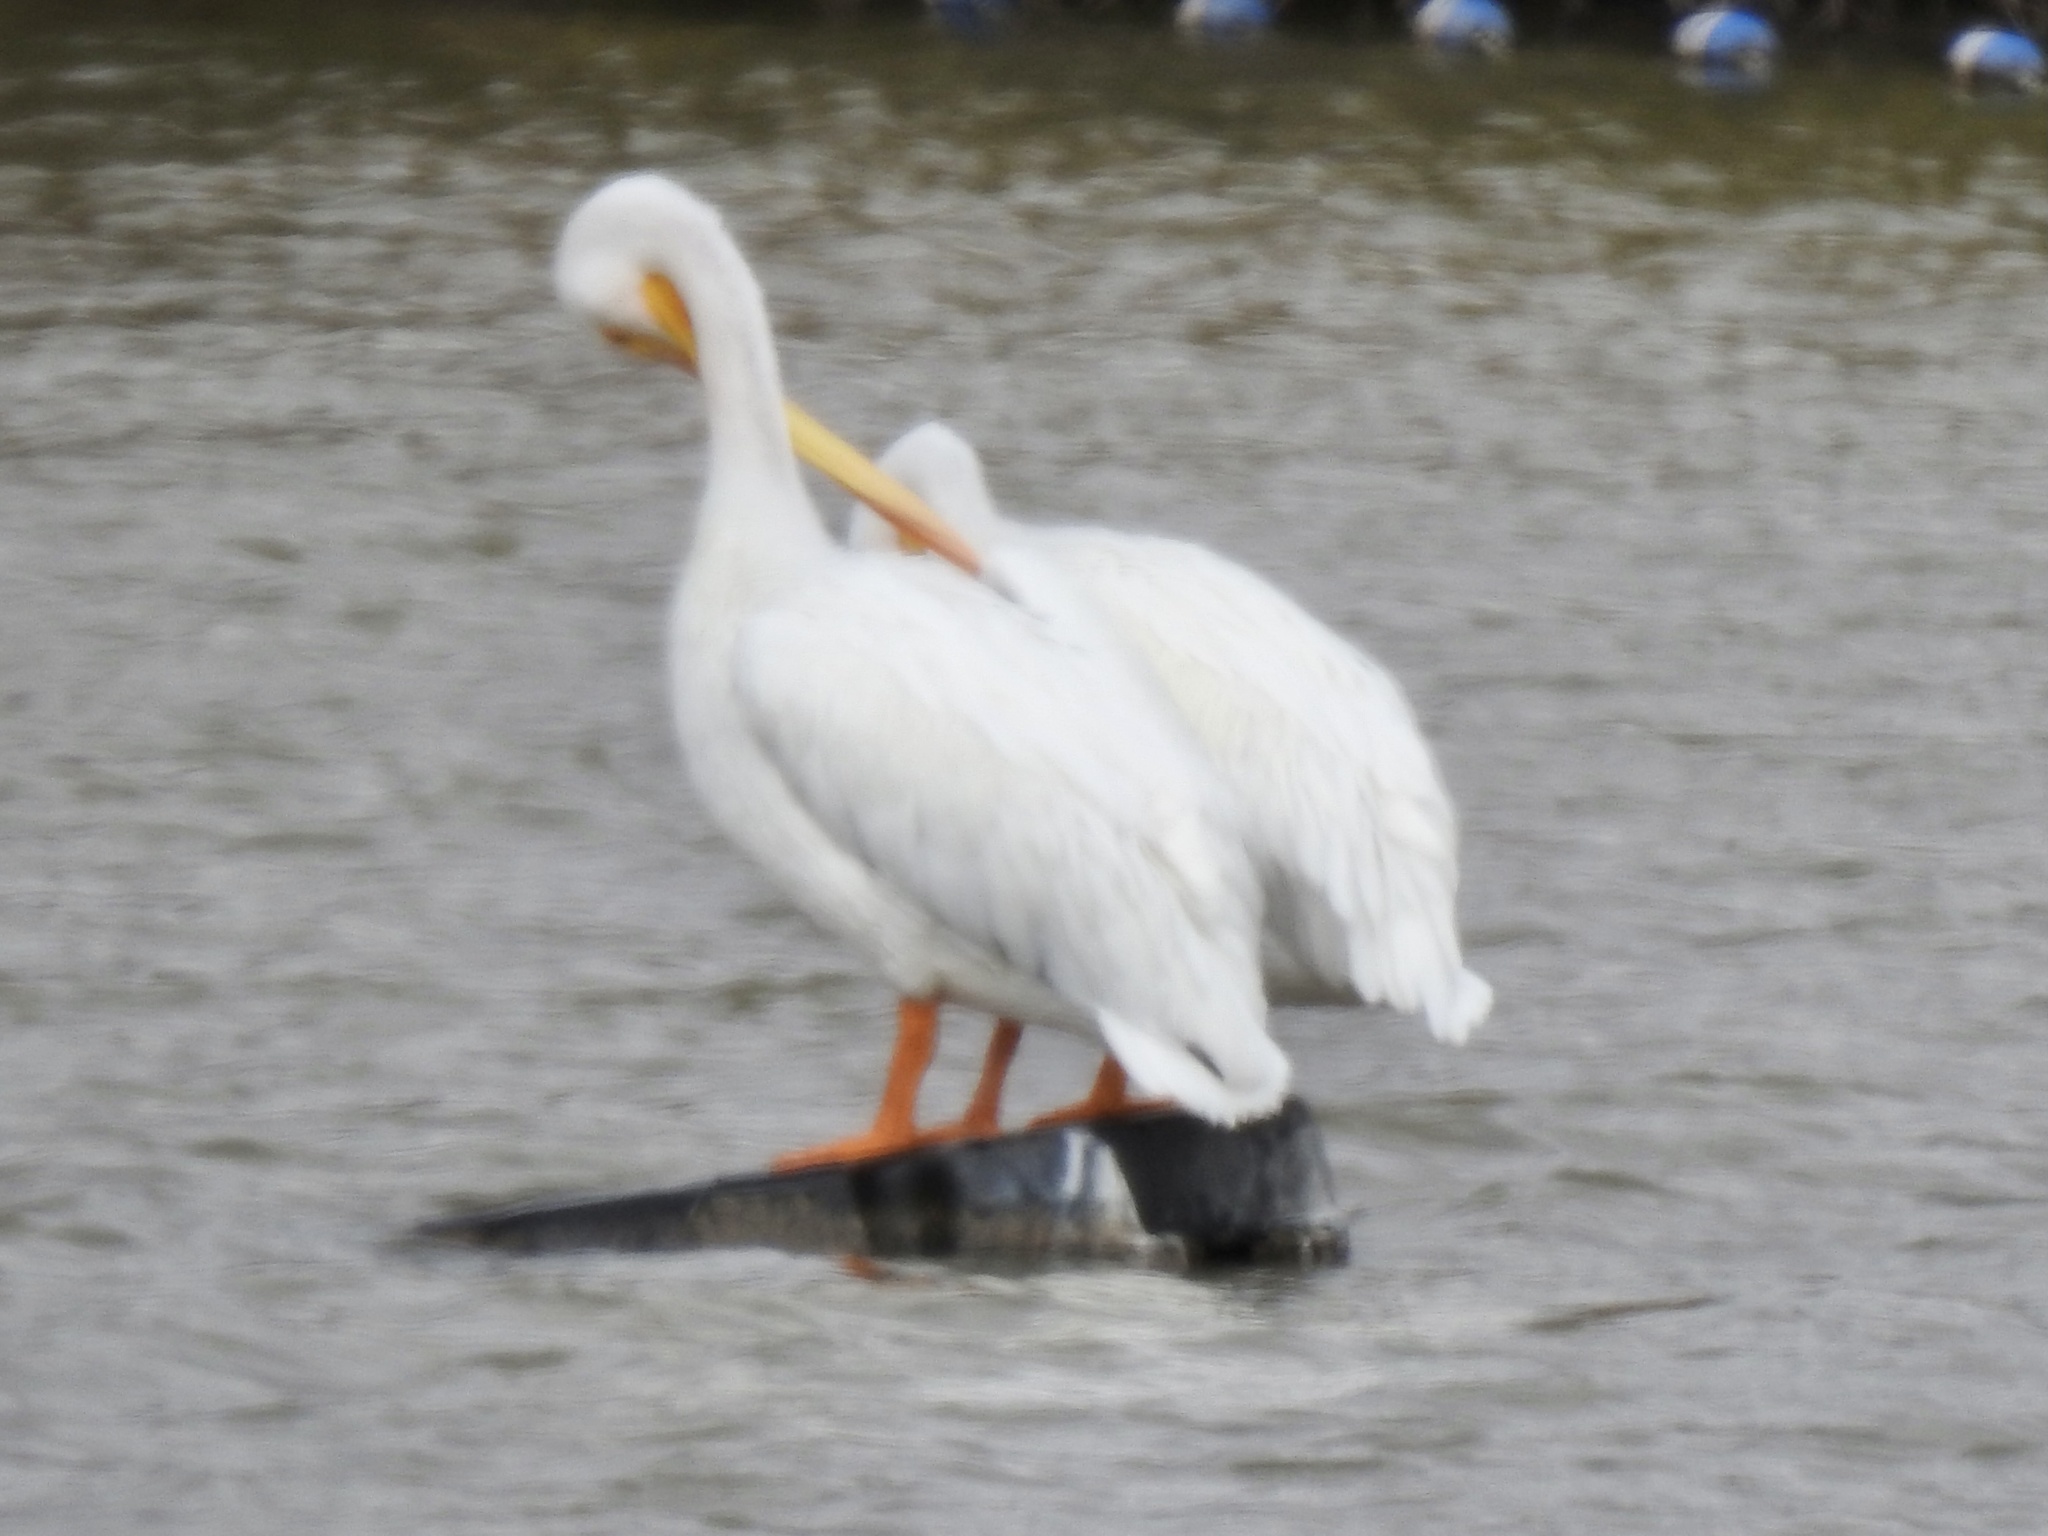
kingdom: Animalia
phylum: Chordata
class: Aves
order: Pelecaniformes
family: Pelecanidae
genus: Pelecanus
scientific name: Pelecanus erythrorhynchos
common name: American white pelican
